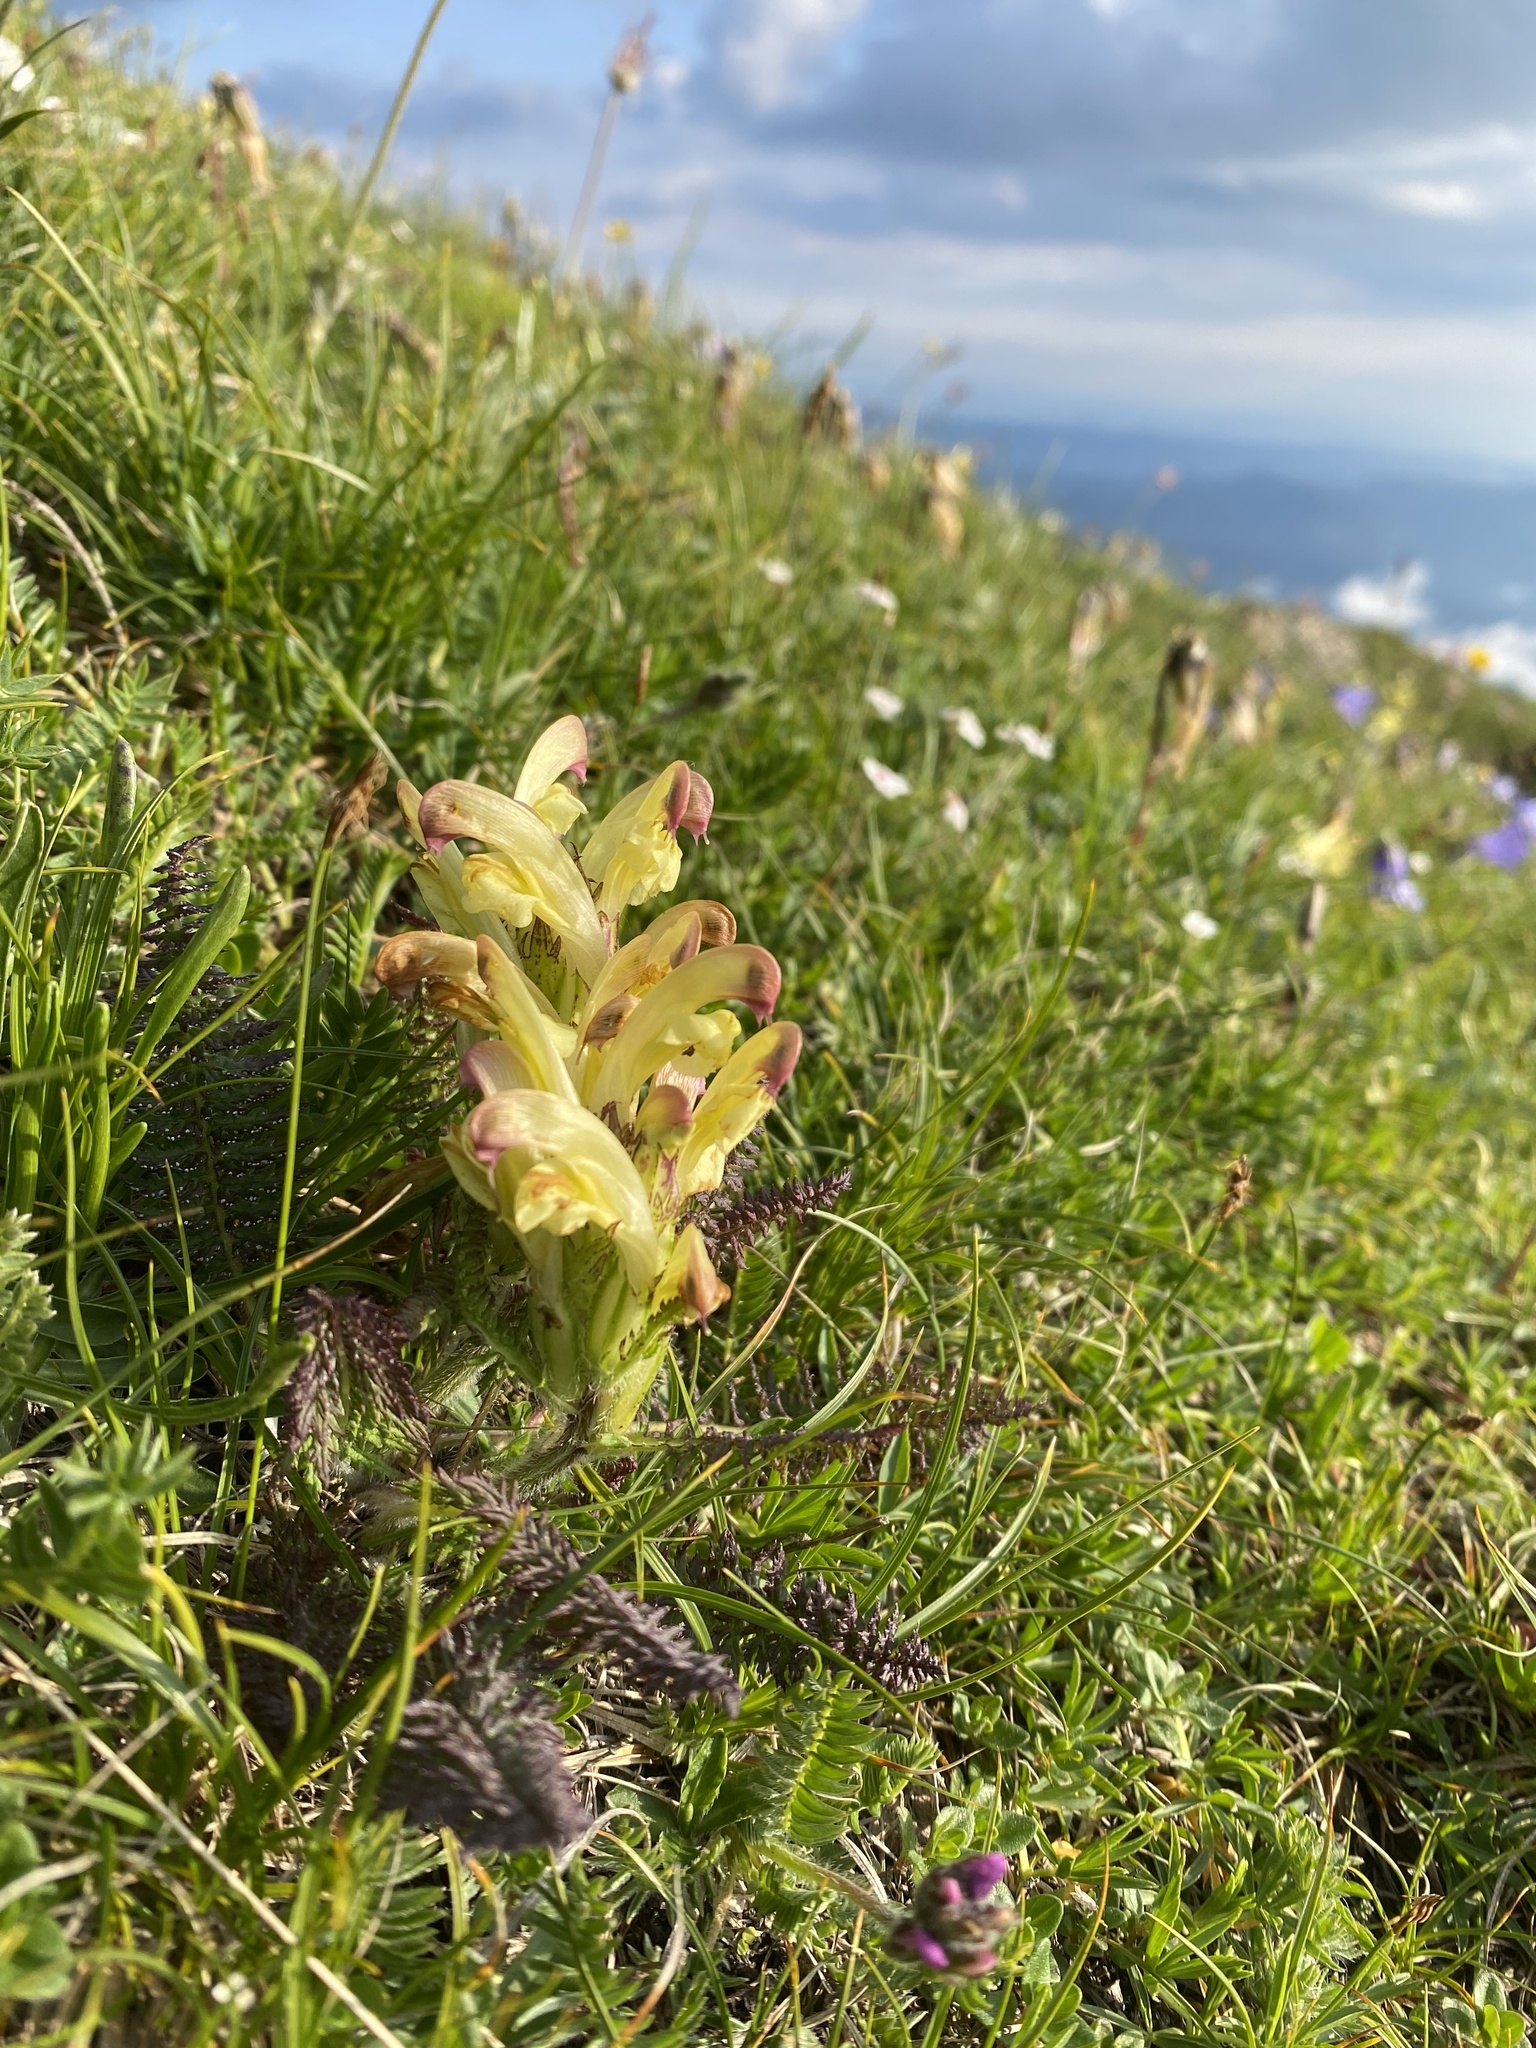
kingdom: Plantae
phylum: Tracheophyta
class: Magnoliopsida
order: Lamiales
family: Orobanchaceae
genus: Pedicularis
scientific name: Pedicularis chroorrhyncha
